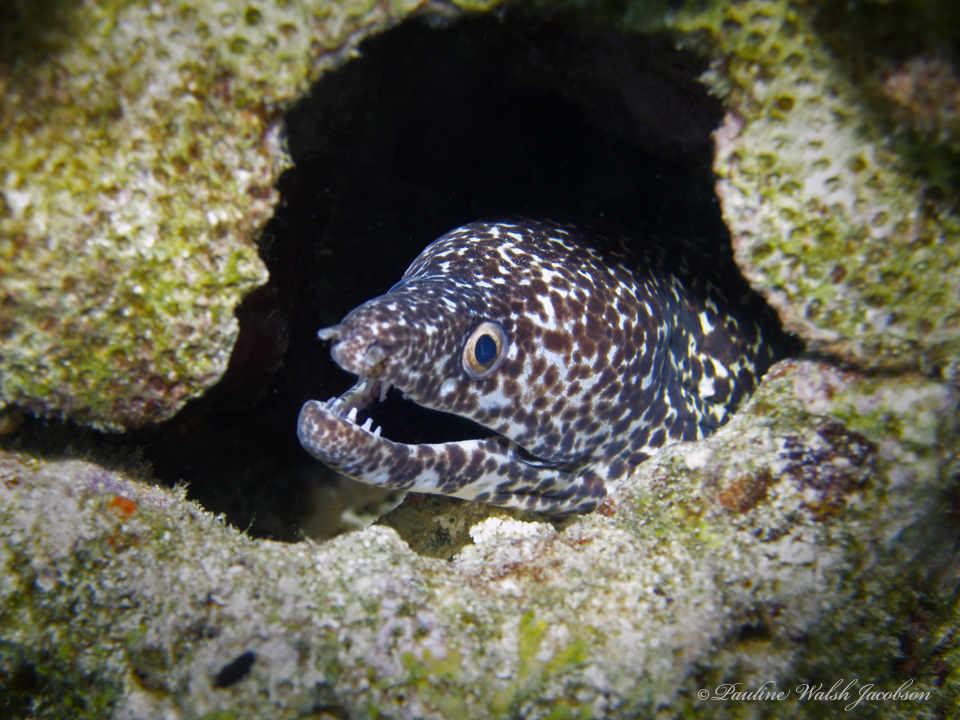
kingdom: Animalia
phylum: Chordata
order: Anguilliformes
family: Muraenidae
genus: Gymnothorax
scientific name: Gymnothorax moringa
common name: Spotted moray
